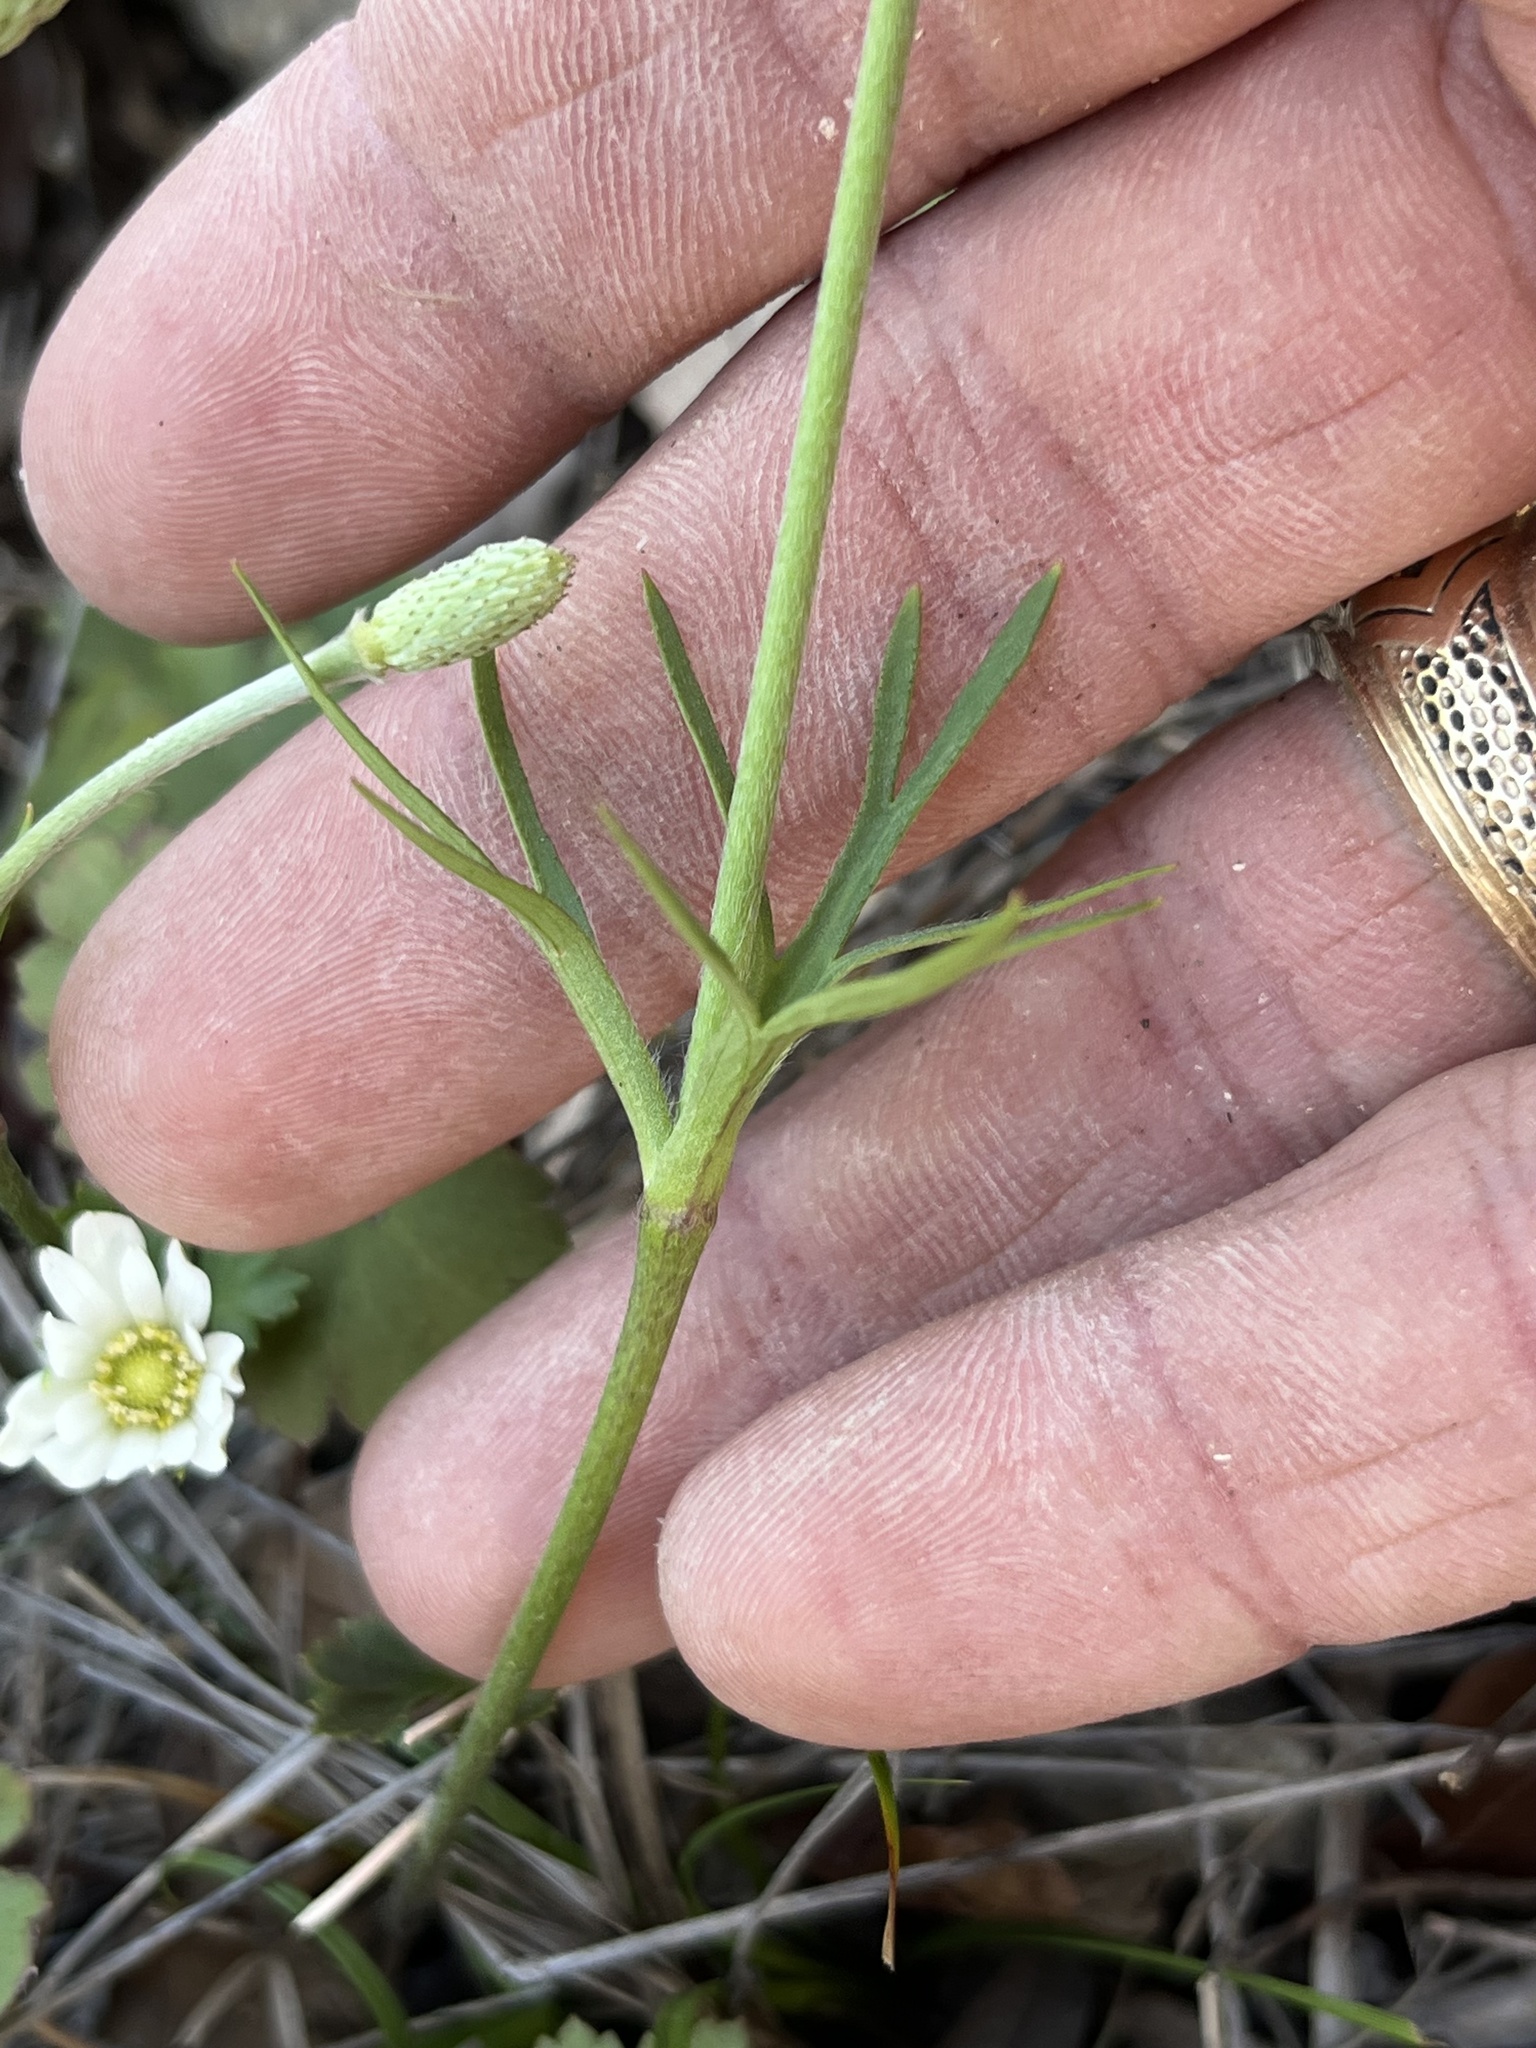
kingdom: Plantae
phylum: Tracheophyta
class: Magnoliopsida
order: Ranunculales
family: Ranunculaceae
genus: Anemone
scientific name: Anemone berlandieri
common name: Ten-petal anemone
